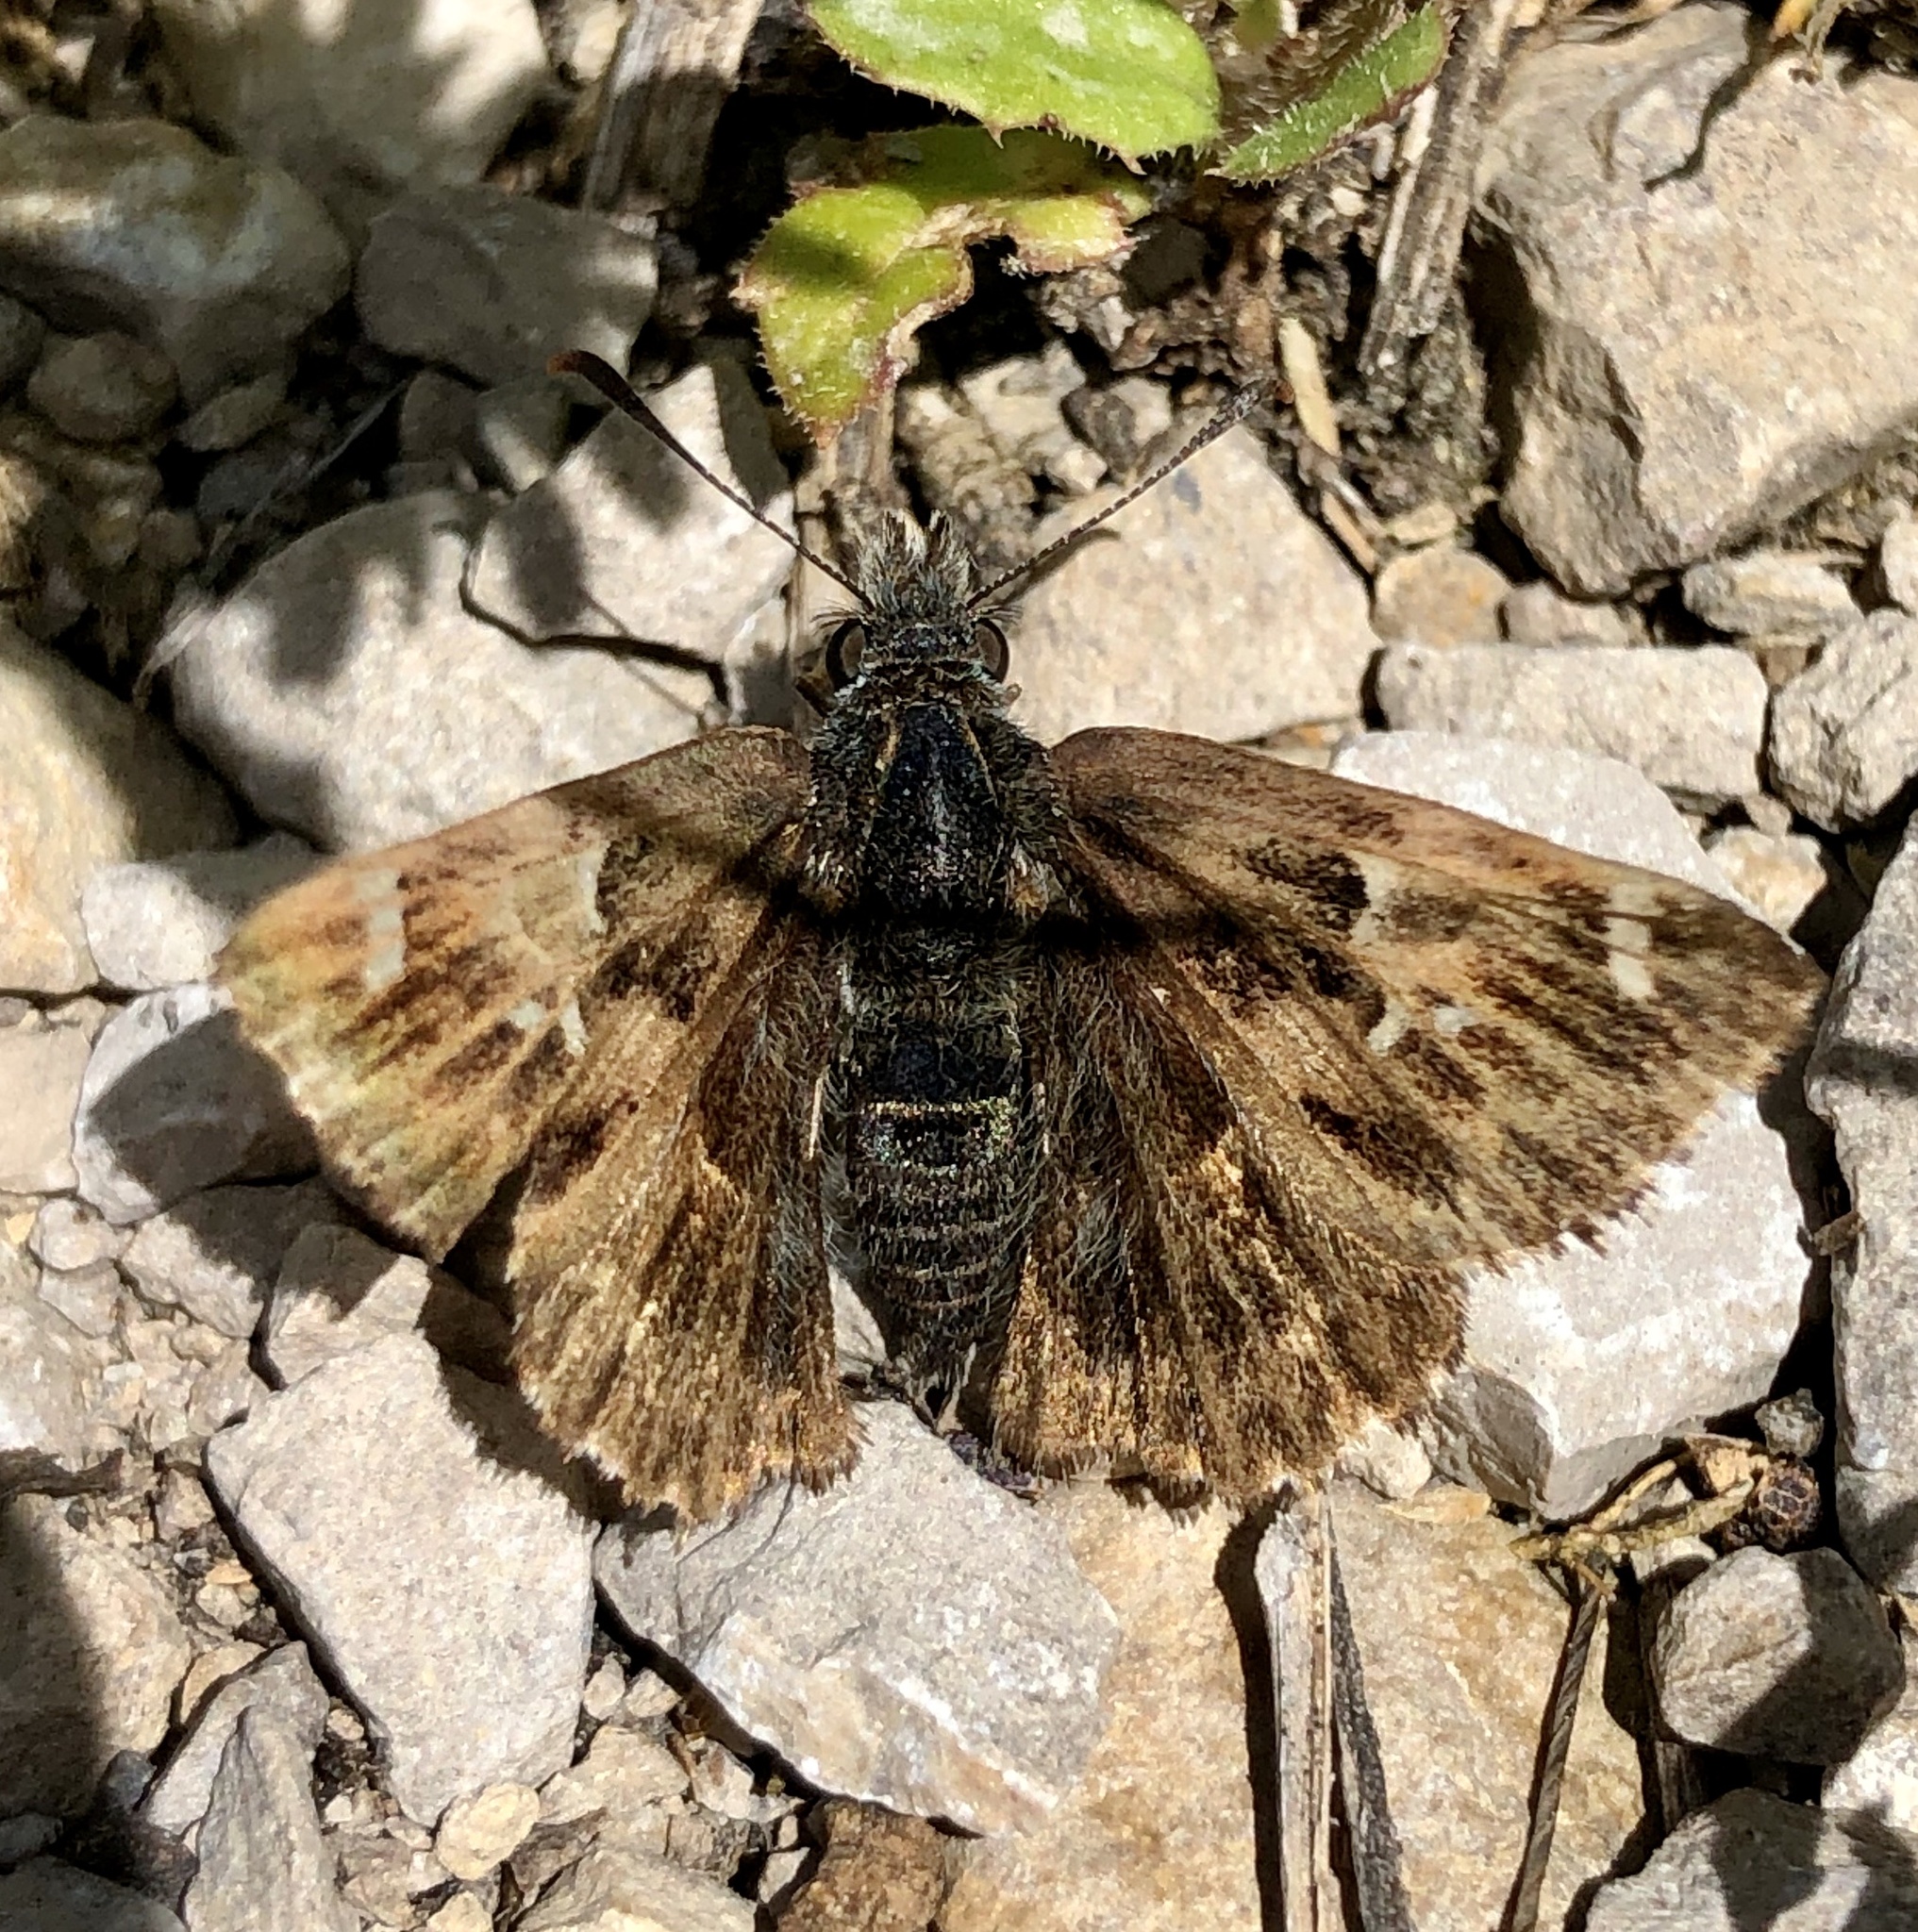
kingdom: Animalia
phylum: Arthropoda
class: Insecta
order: Lepidoptera
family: Hesperiidae
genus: Carcharodus
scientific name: Carcharodus alceae
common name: Mallow skipper
